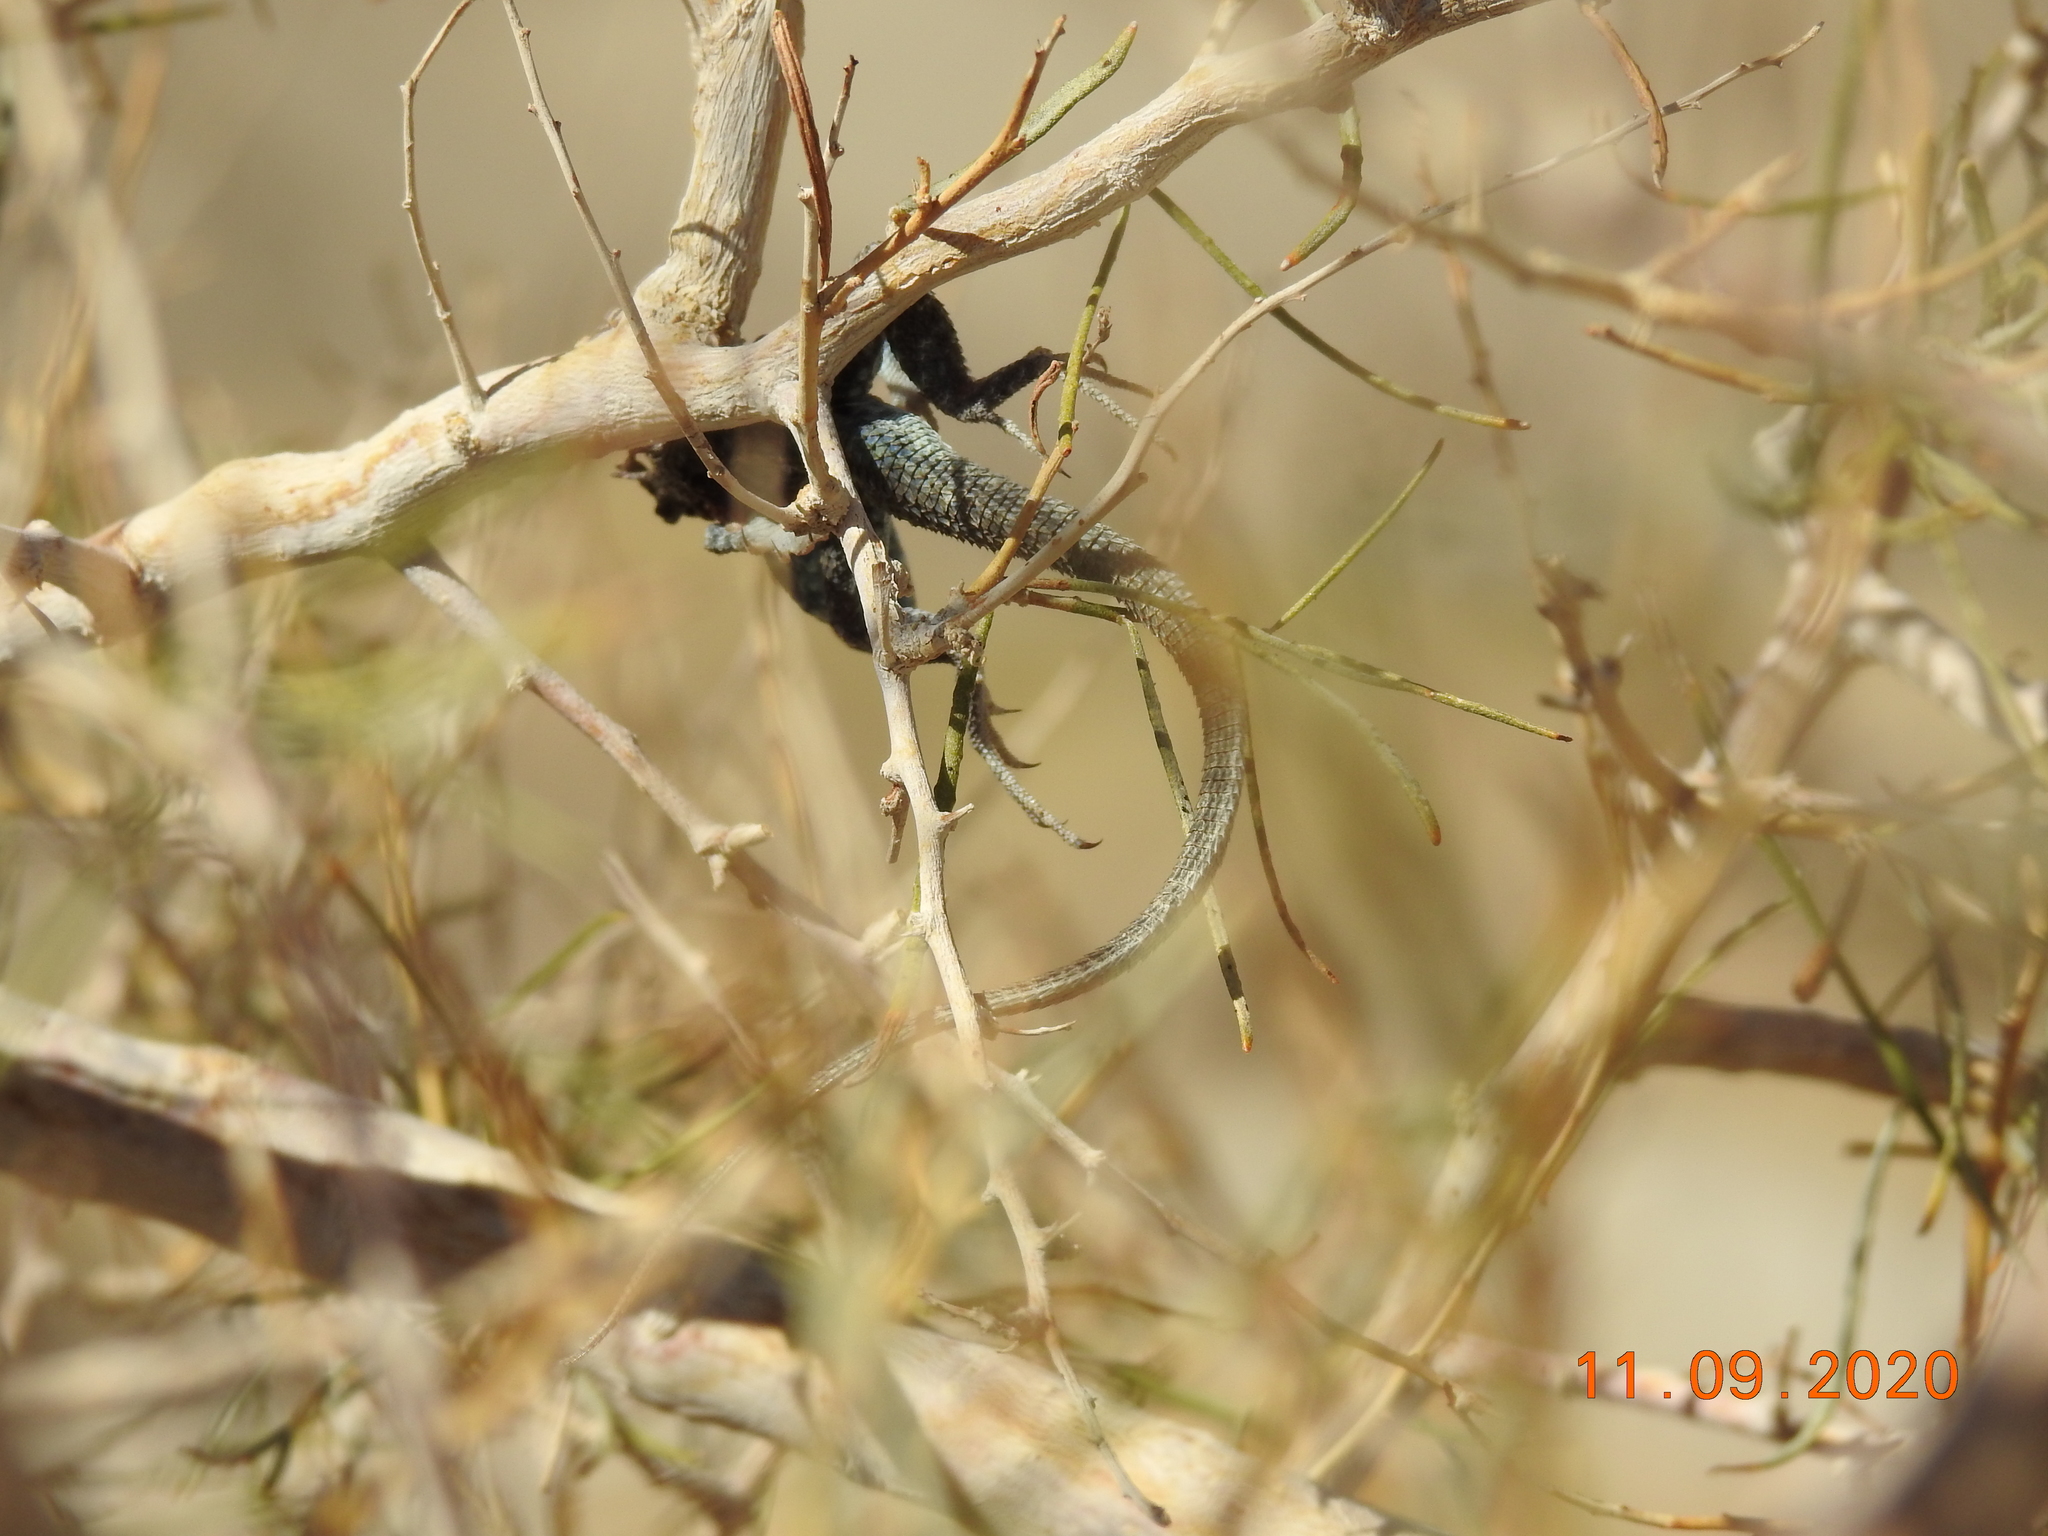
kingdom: Animalia
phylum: Chordata
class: Aves
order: Passeriformes
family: Laniidae
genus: Lanius
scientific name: Lanius ludovicianus
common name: Loggerhead shrike
